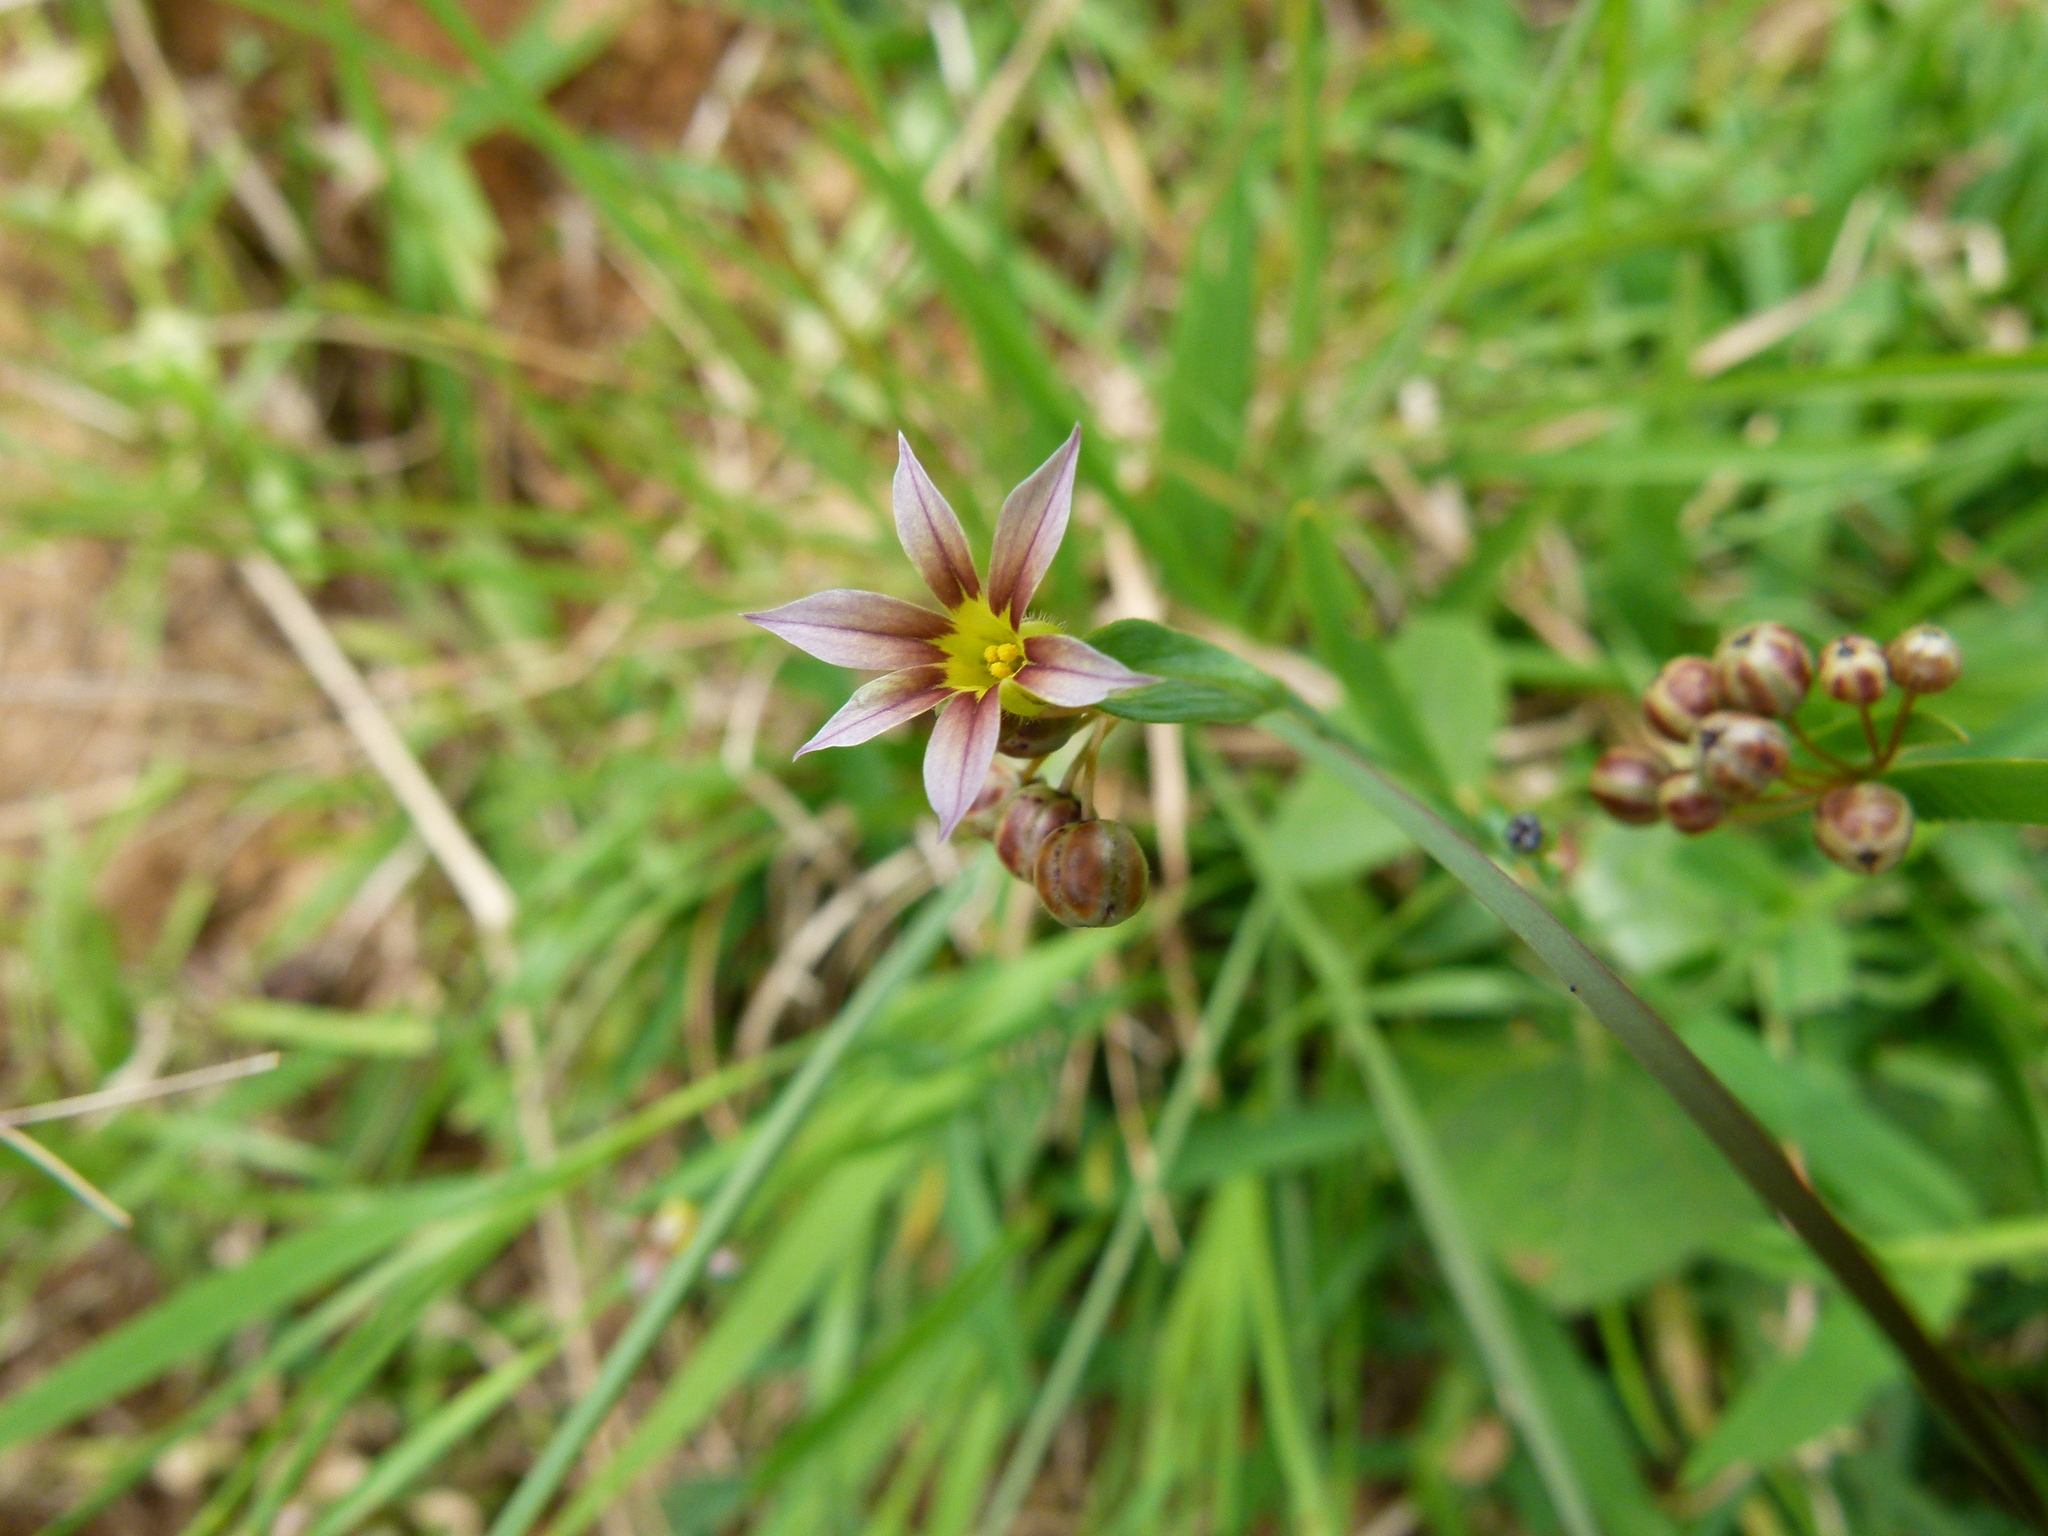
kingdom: Plantae
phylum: Tracheophyta
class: Liliopsida
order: Asparagales
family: Iridaceae
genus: Sisyrinchium
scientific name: Sisyrinchium micranthum
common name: Bermuda pigroot
